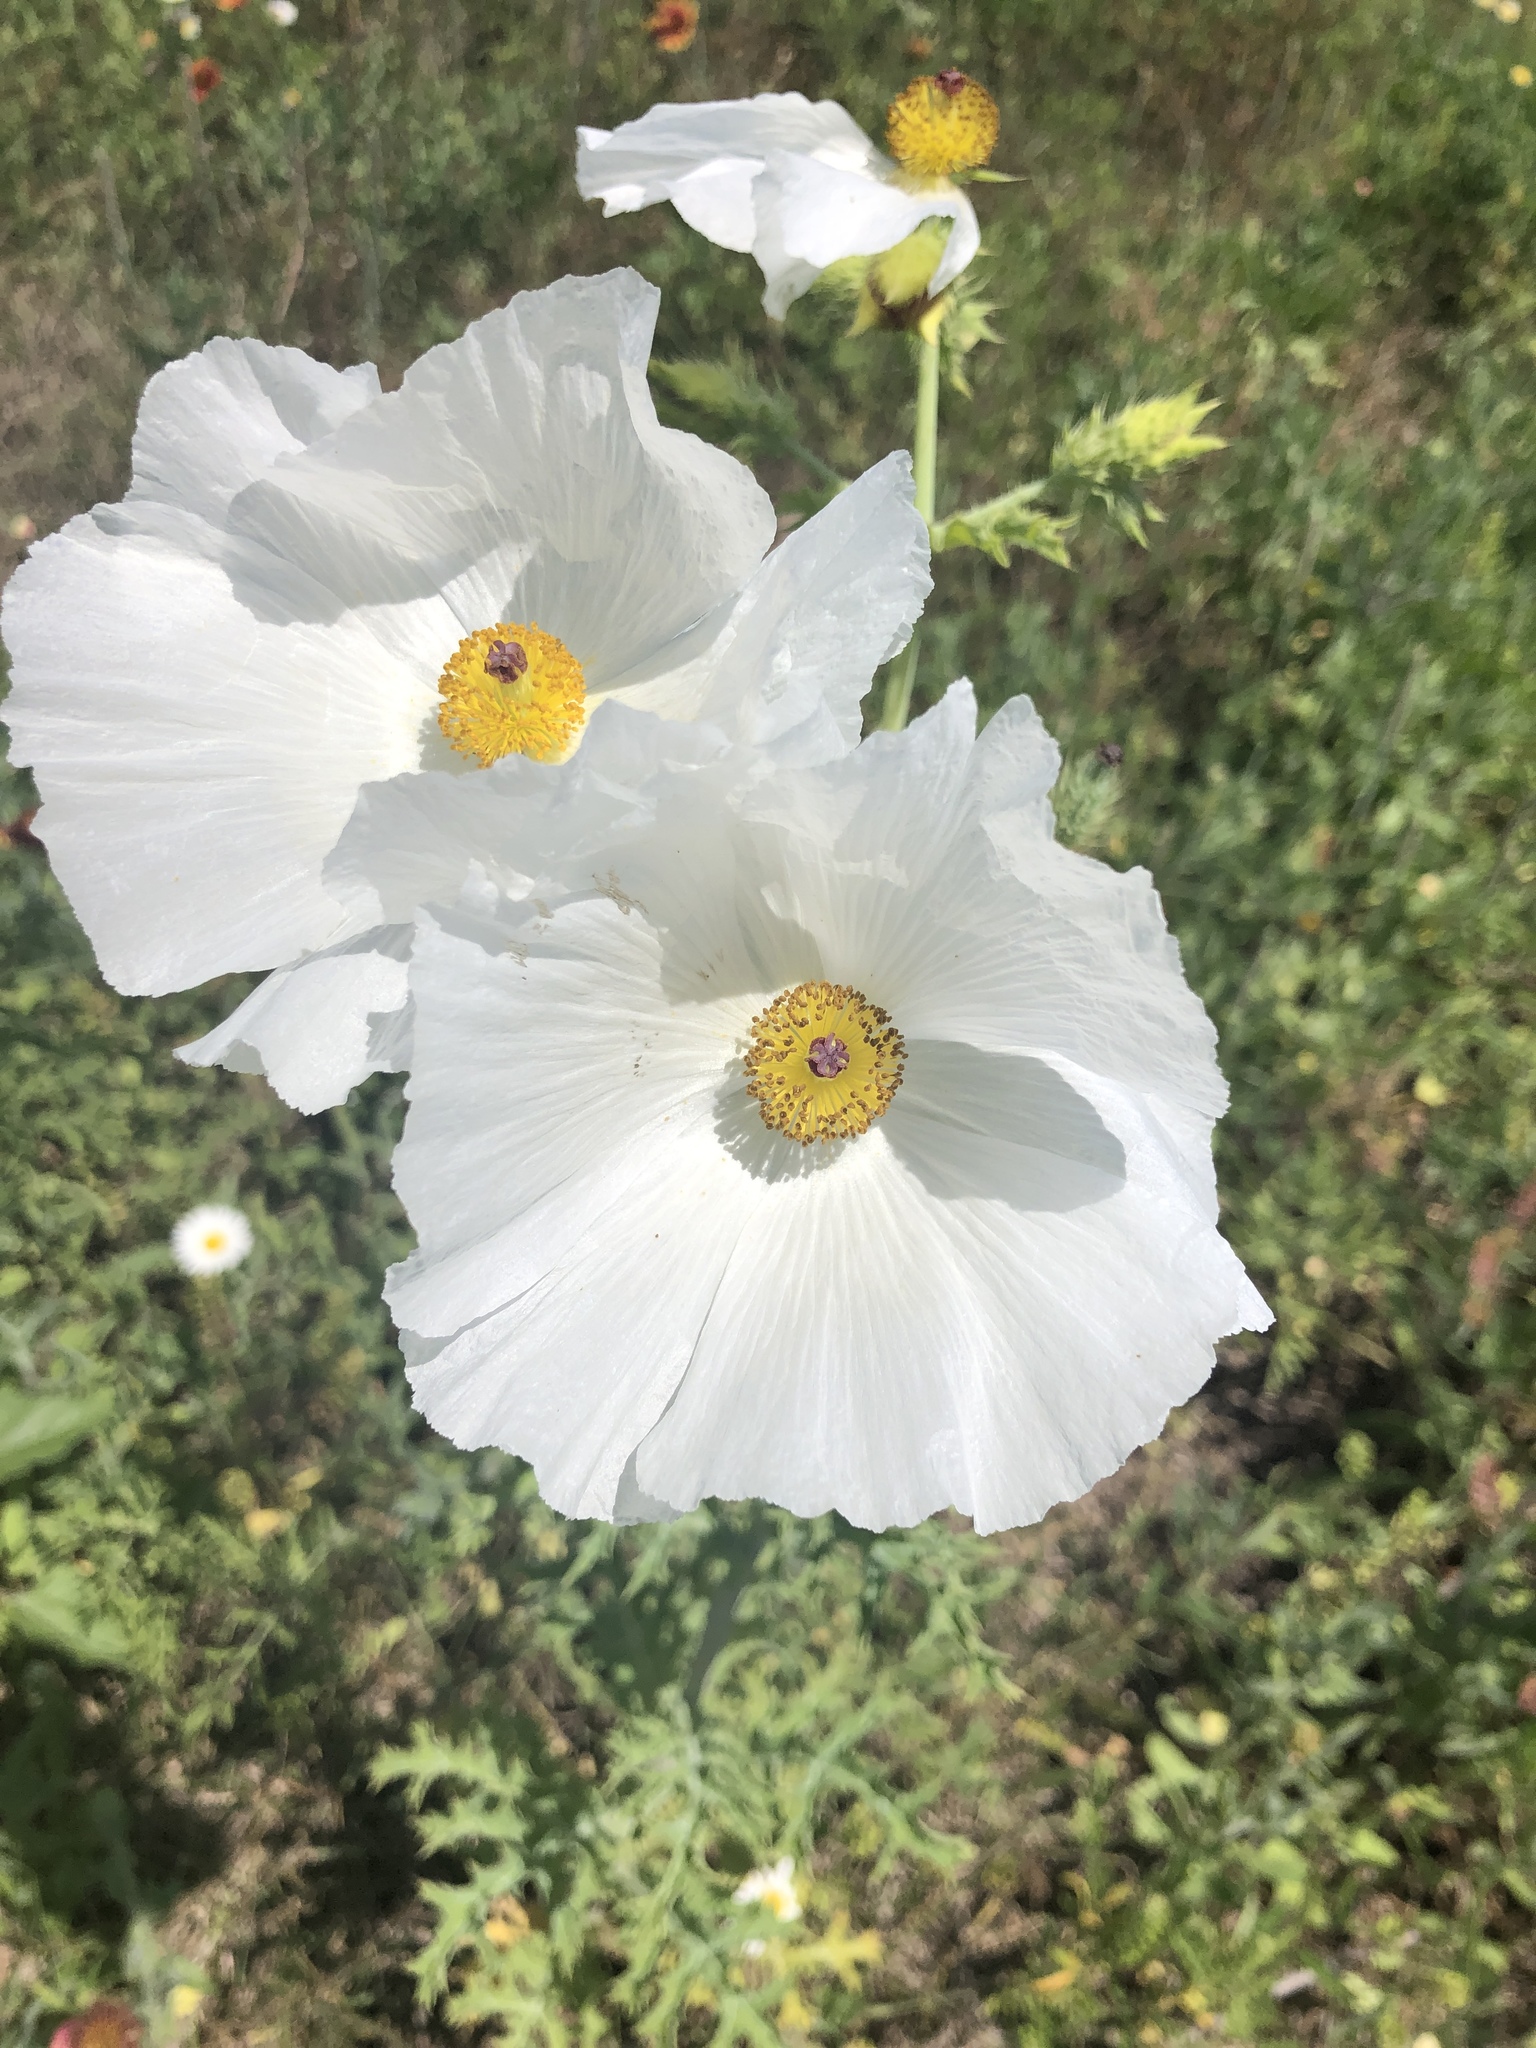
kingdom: Plantae
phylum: Tracheophyta
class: Magnoliopsida
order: Ranunculales
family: Papaveraceae
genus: Argemone
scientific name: Argemone albiflora
